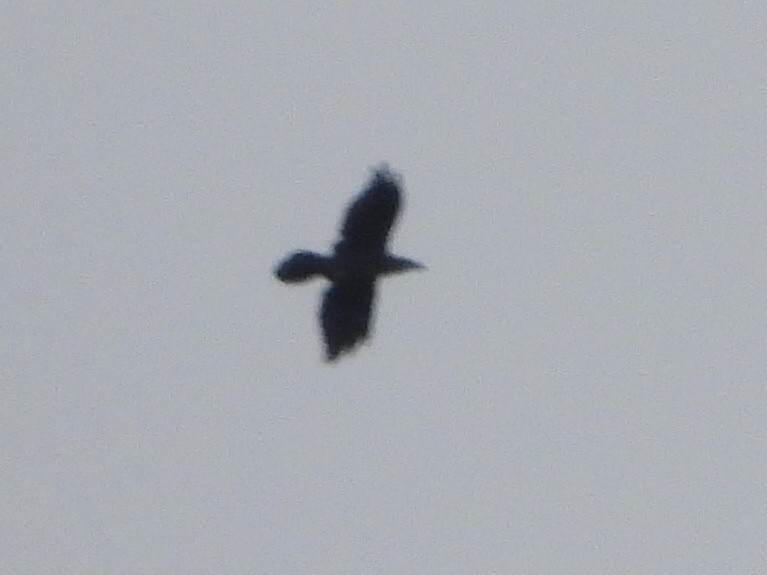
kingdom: Animalia
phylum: Chordata
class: Aves
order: Passeriformes
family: Corvidae
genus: Corvus
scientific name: Corvus corax
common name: Common raven
